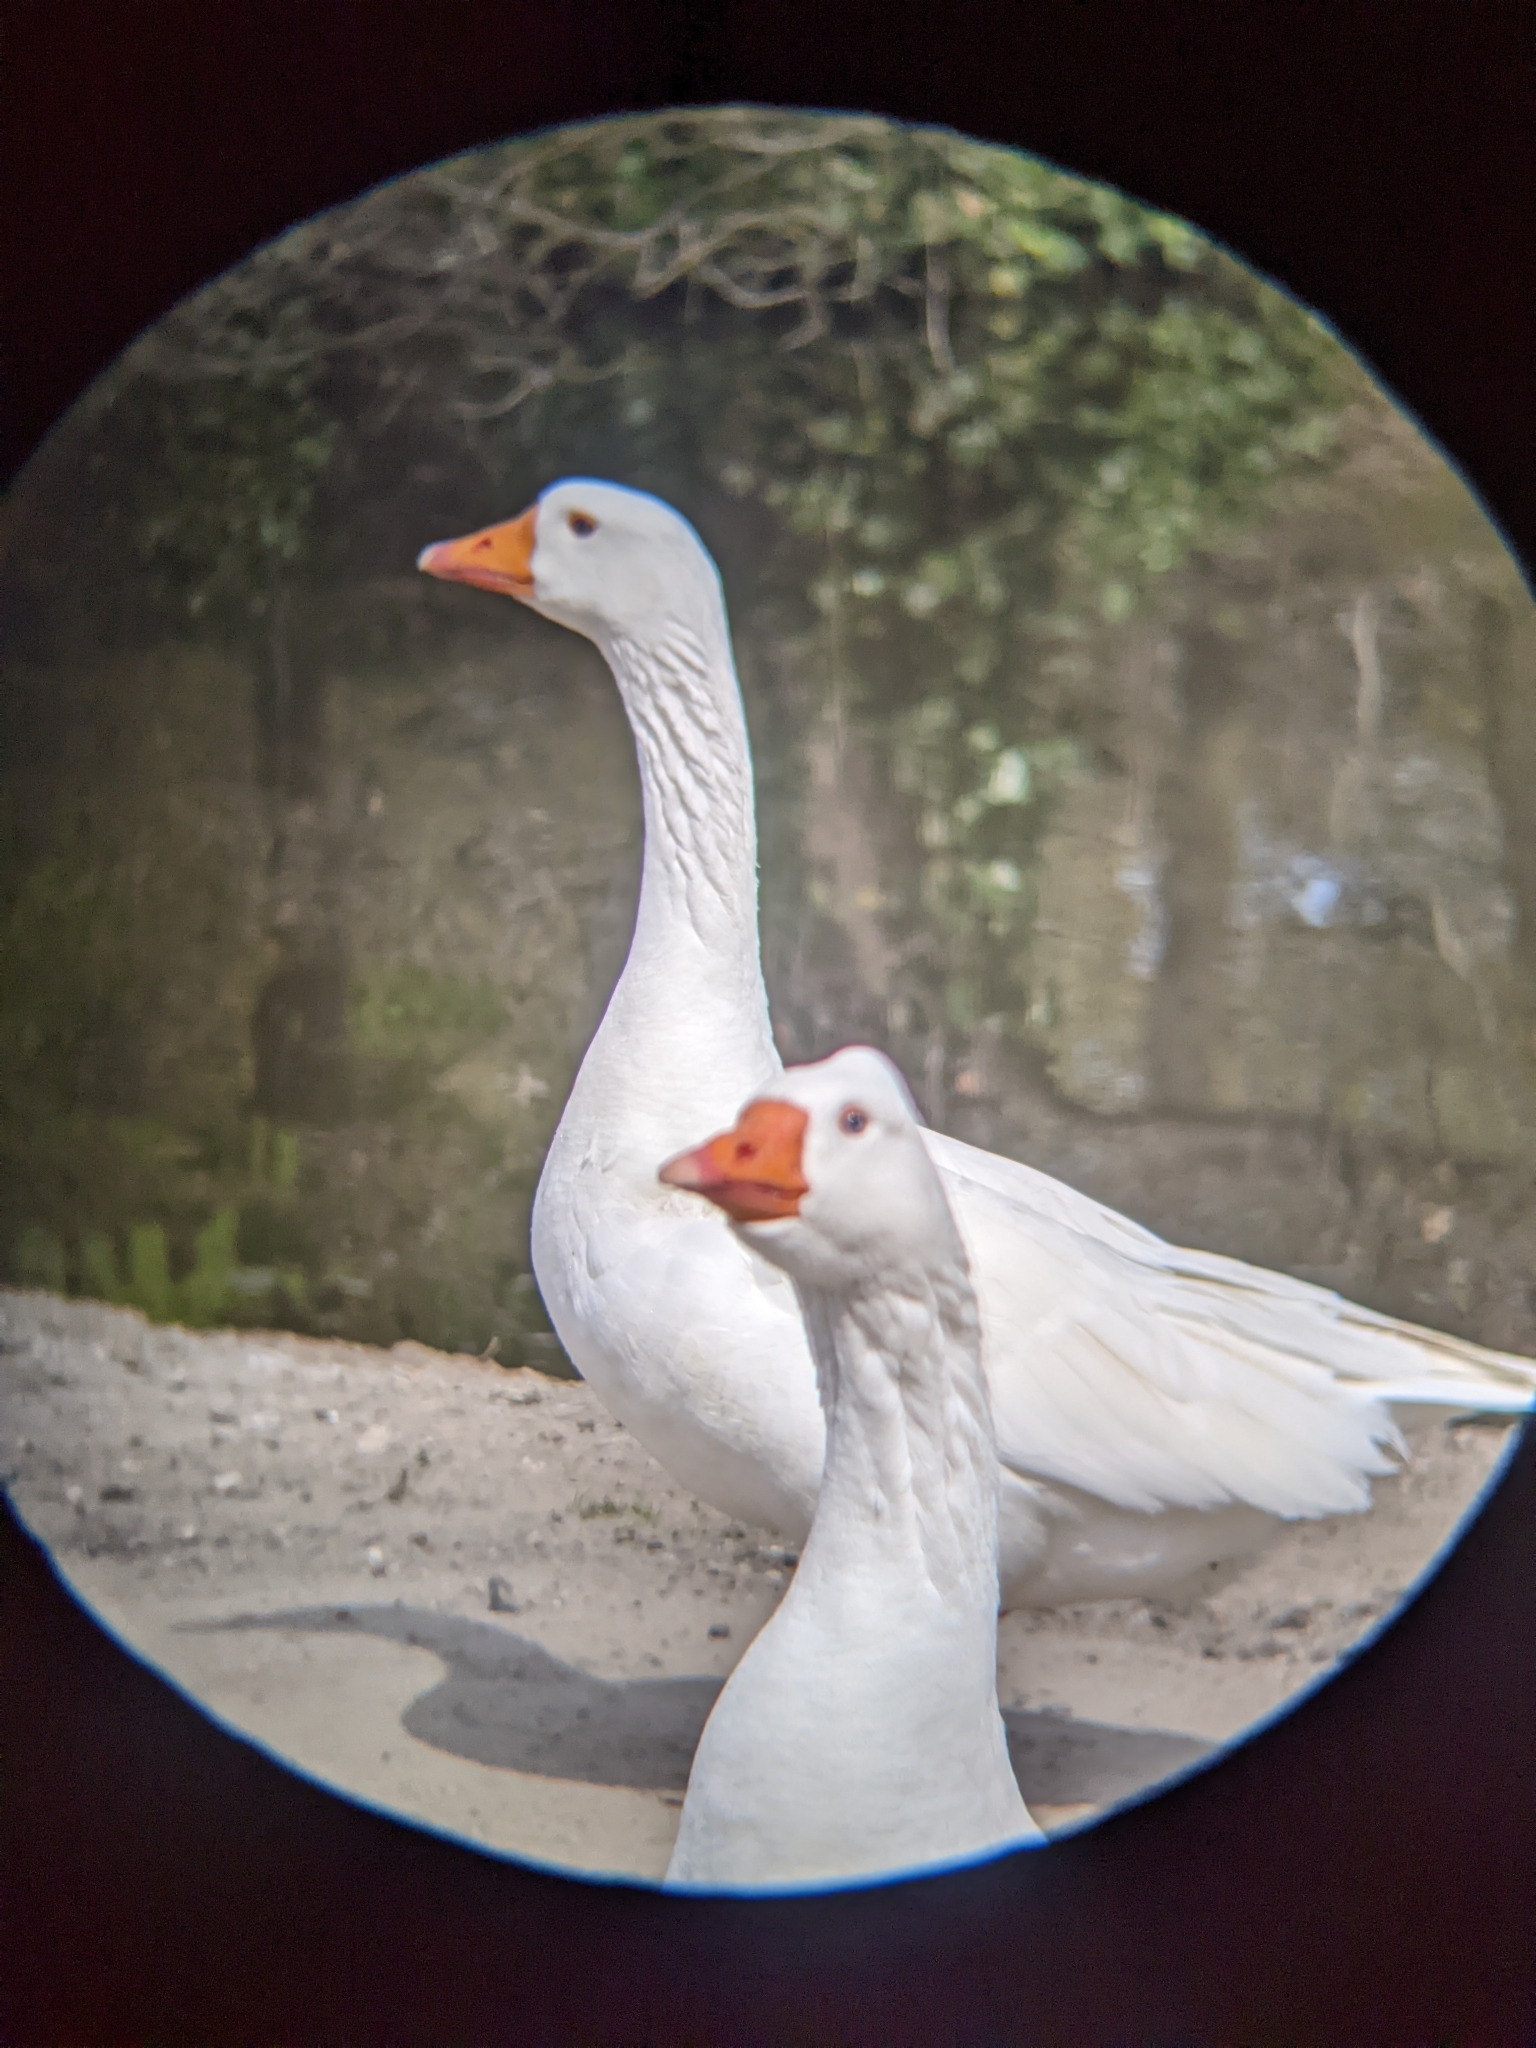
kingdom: Animalia
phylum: Chordata
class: Aves
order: Anseriformes
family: Anatidae
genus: Anser
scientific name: Anser anser
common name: Greylag goose
